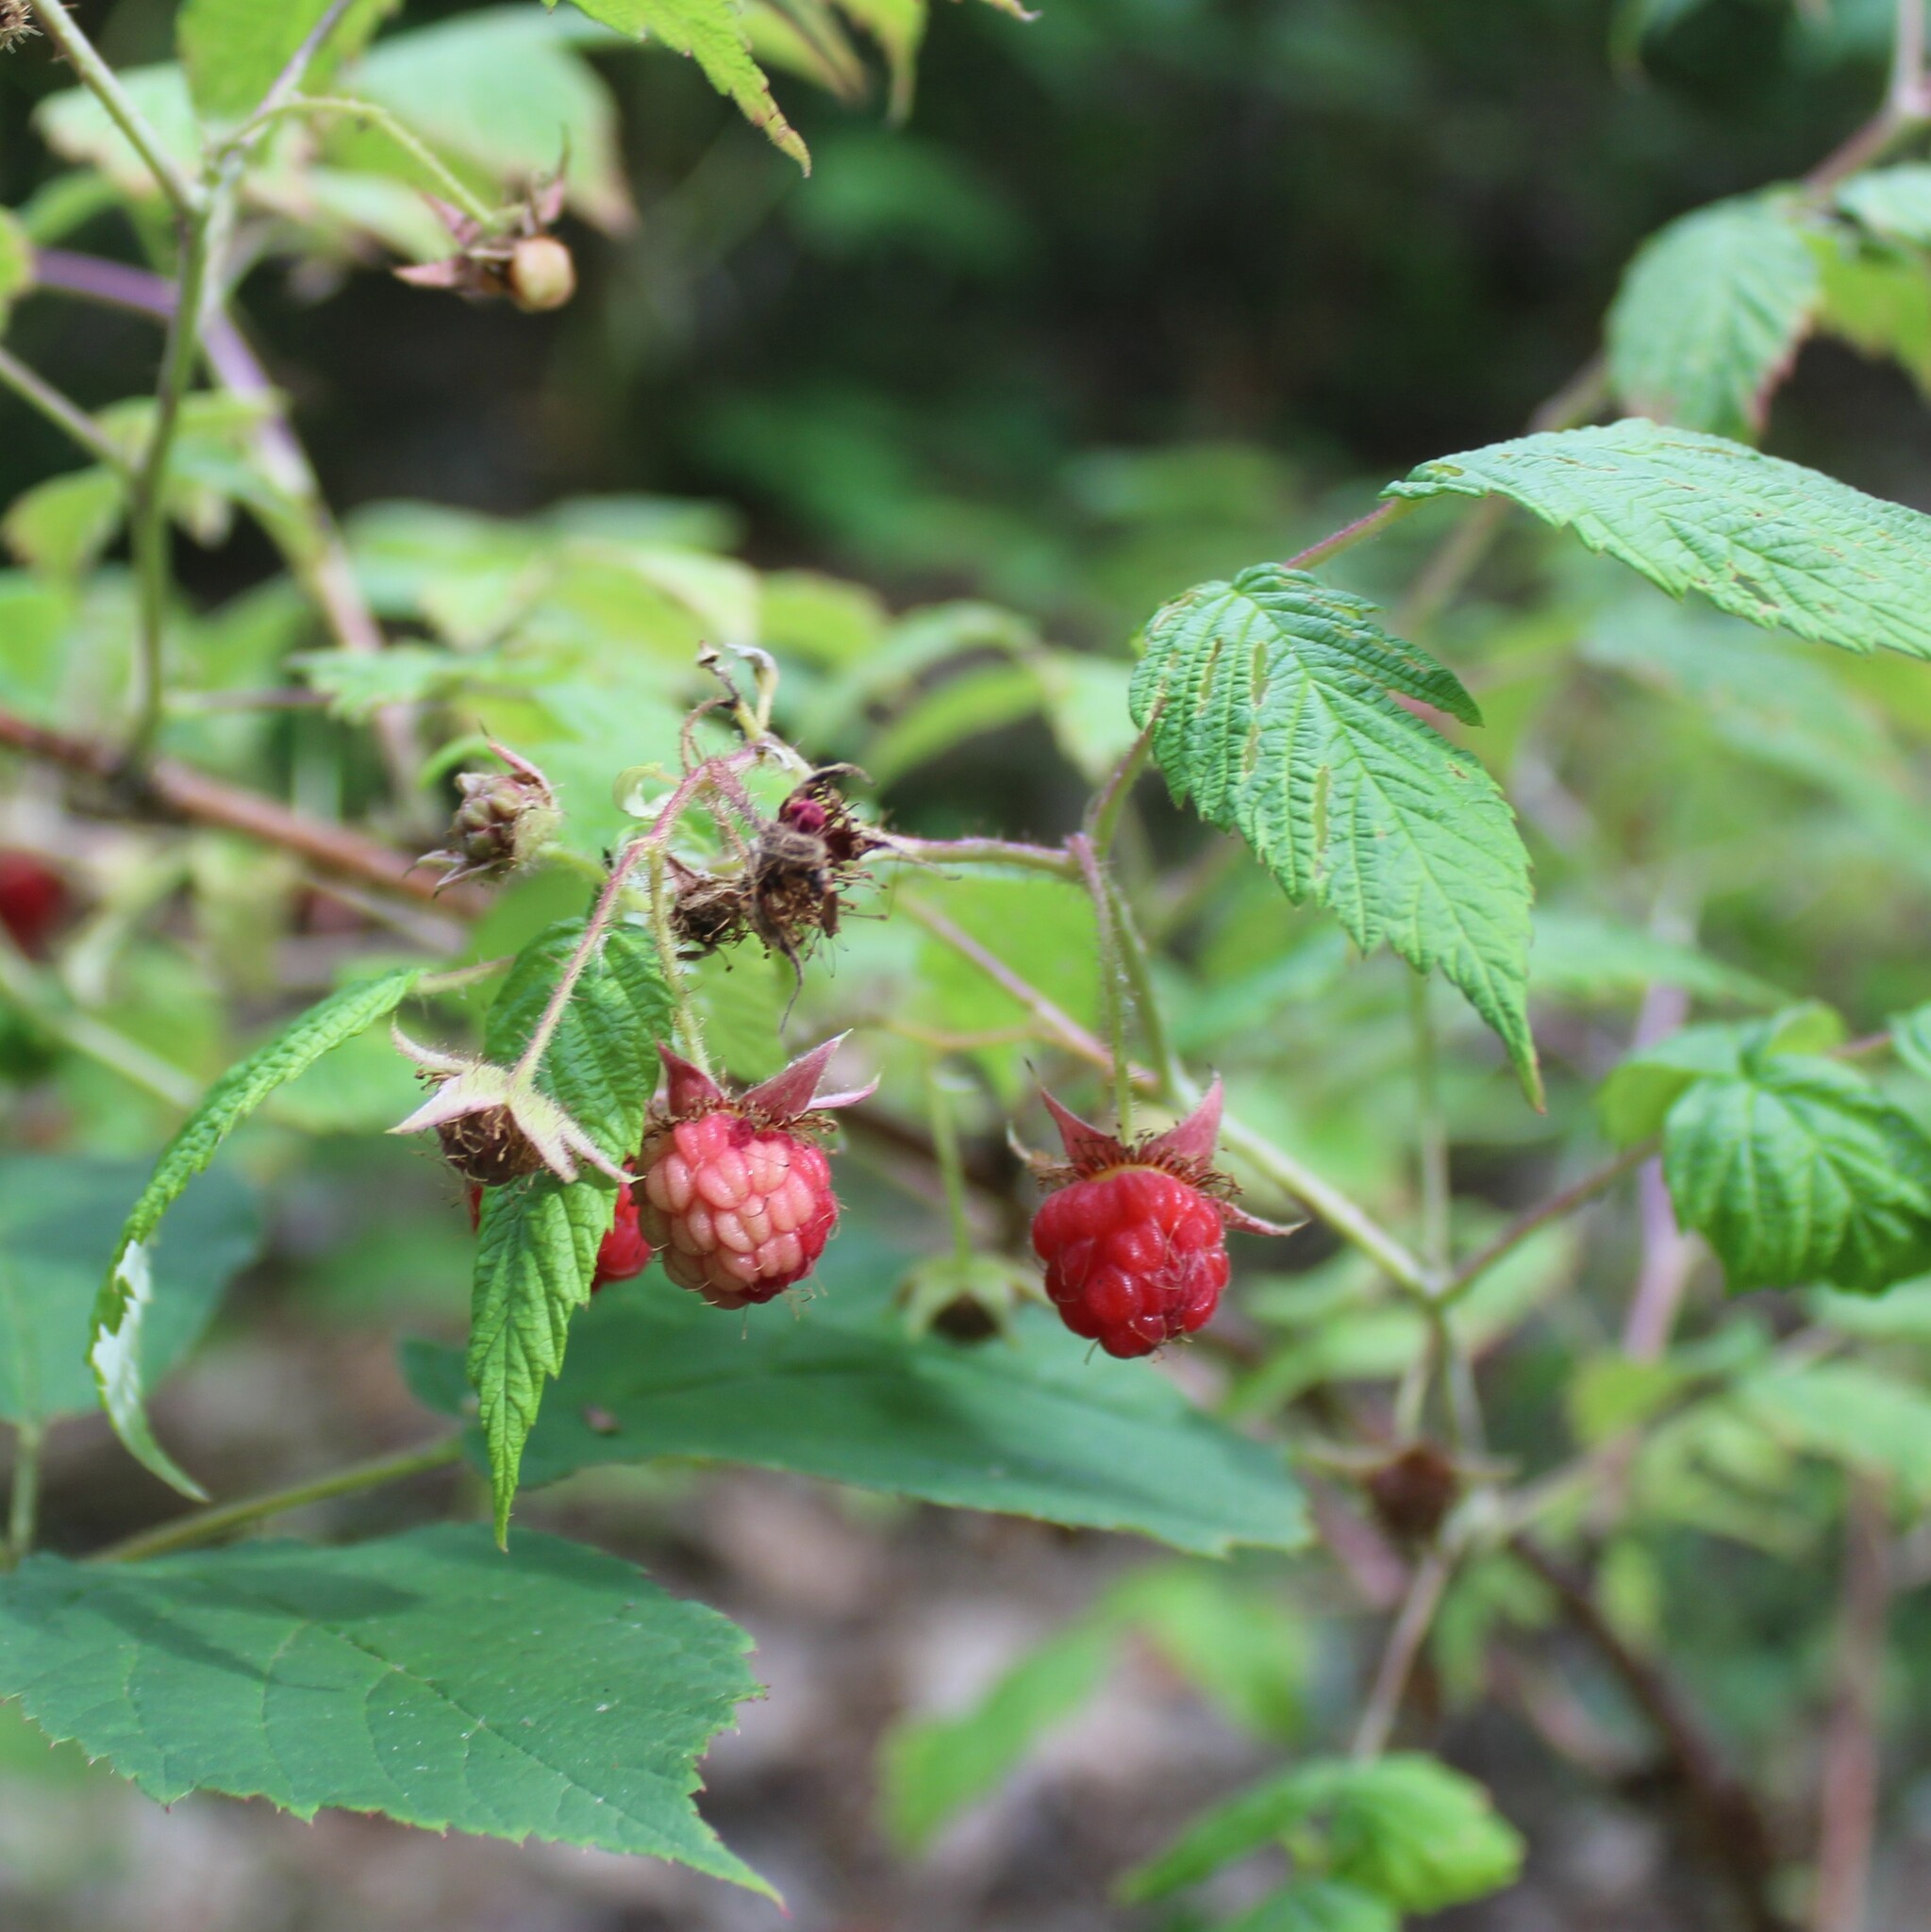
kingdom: Plantae
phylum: Tracheophyta
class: Magnoliopsida
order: Rosales
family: Rosaceae
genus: Rubus
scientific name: Rubus idaeus
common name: Raspberry
